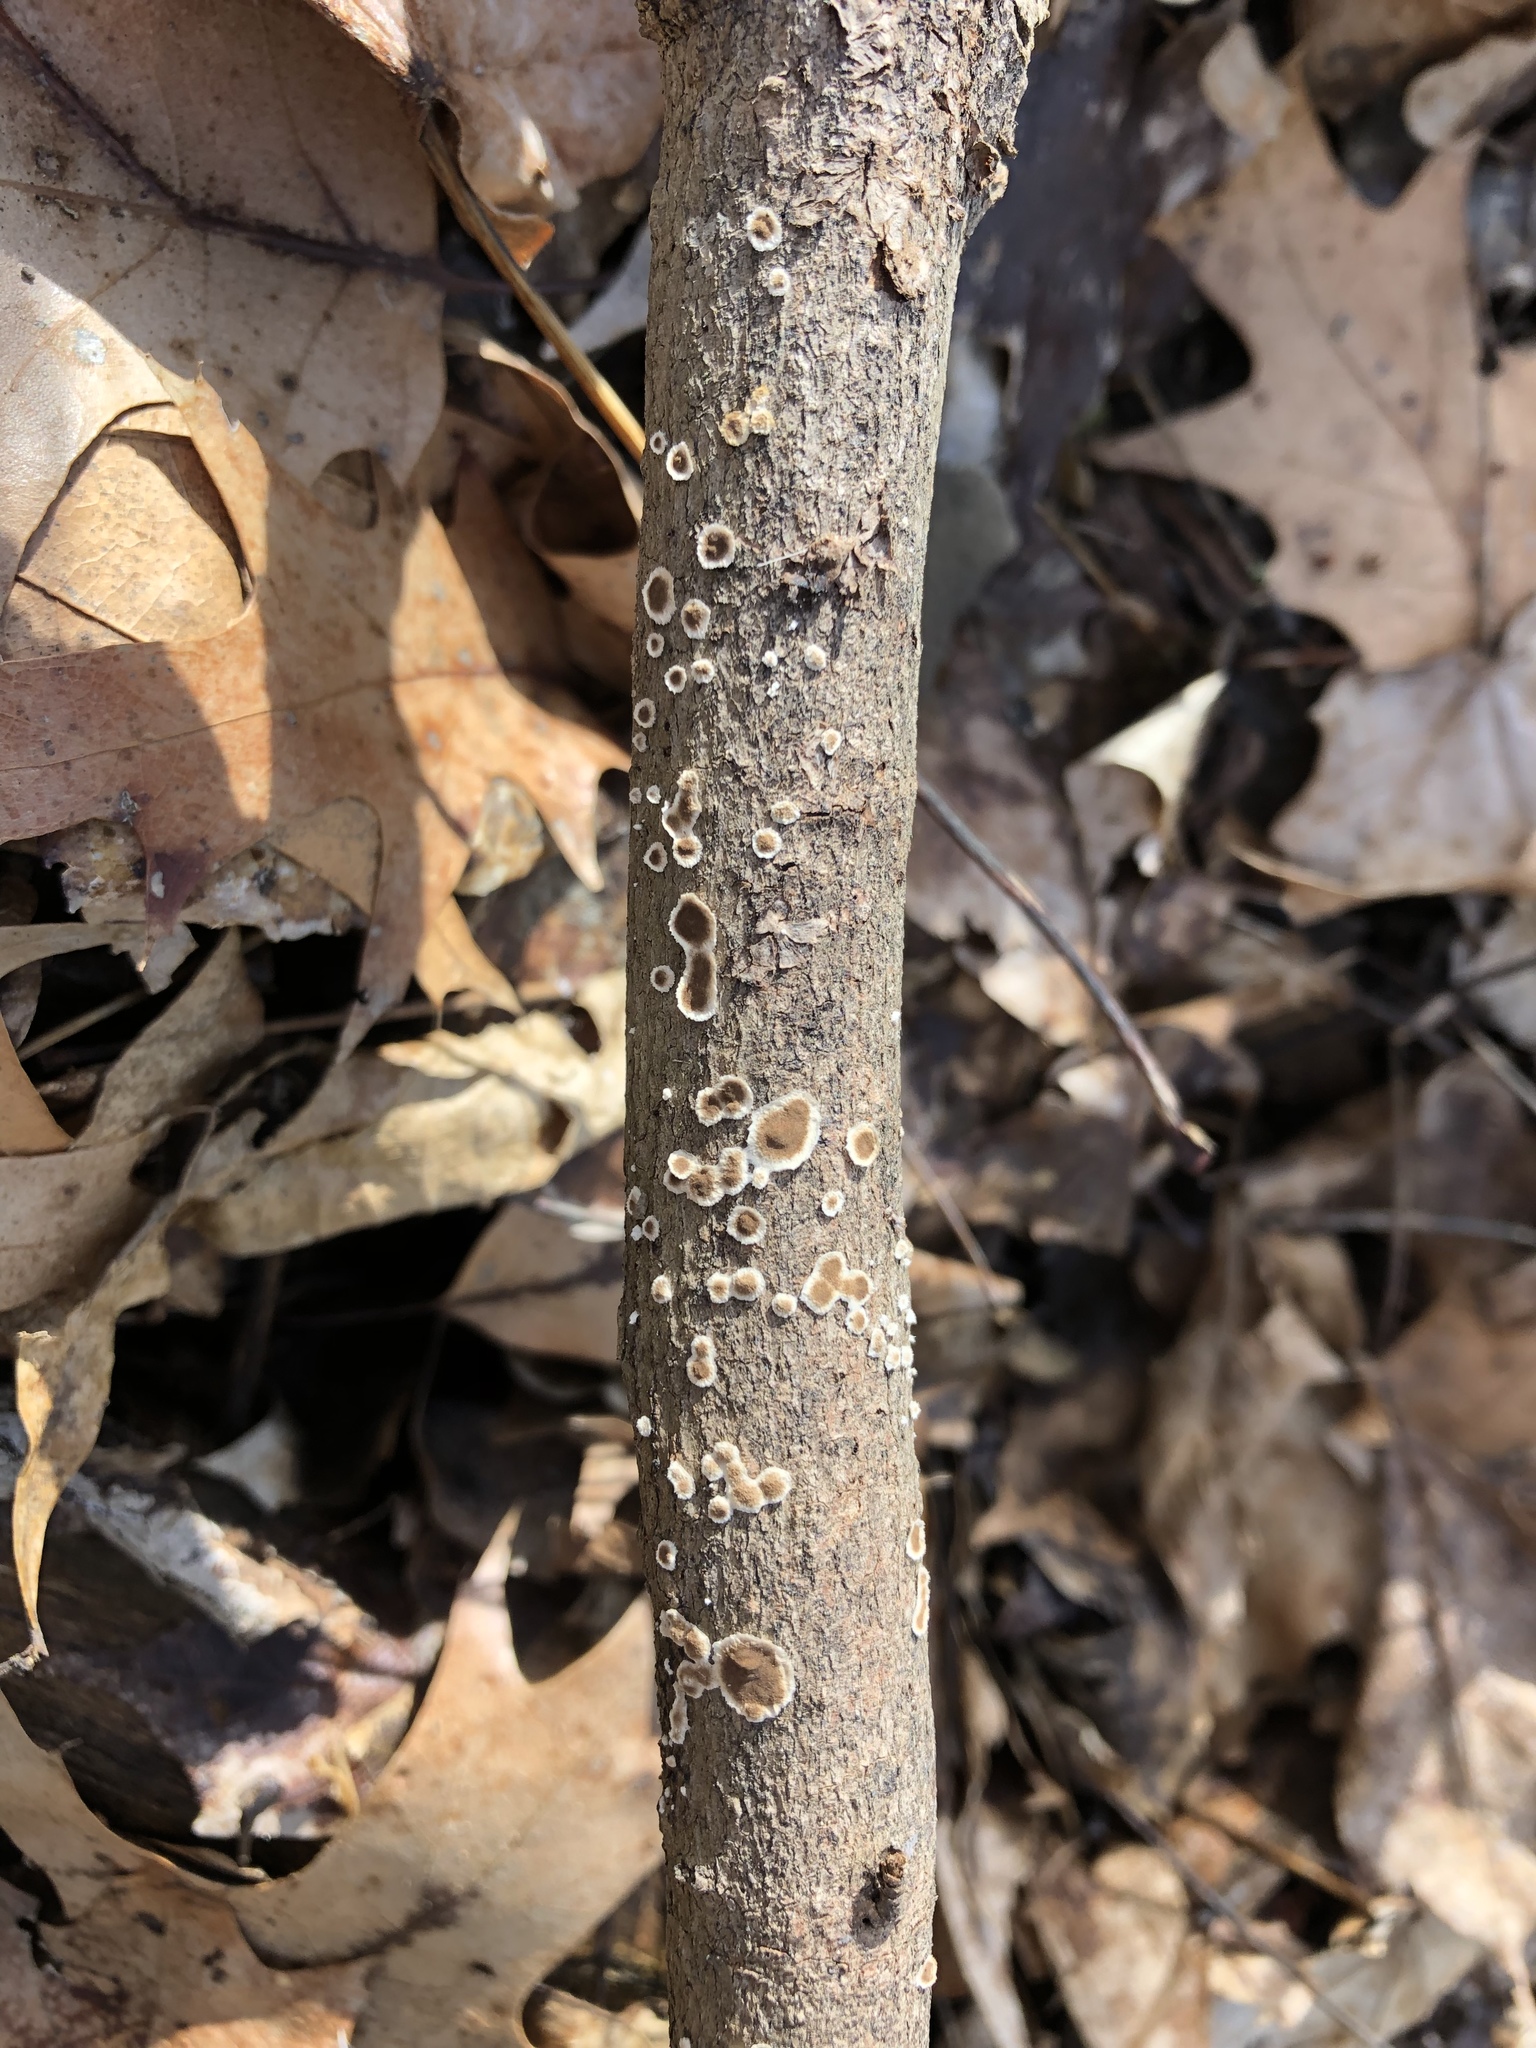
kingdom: Fungi
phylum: Basidiomycota
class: Agaricomycetes
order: Russulales
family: Peniophoraceae
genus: Peniophora
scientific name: Peniophora albobadia
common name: Giraffe spots
